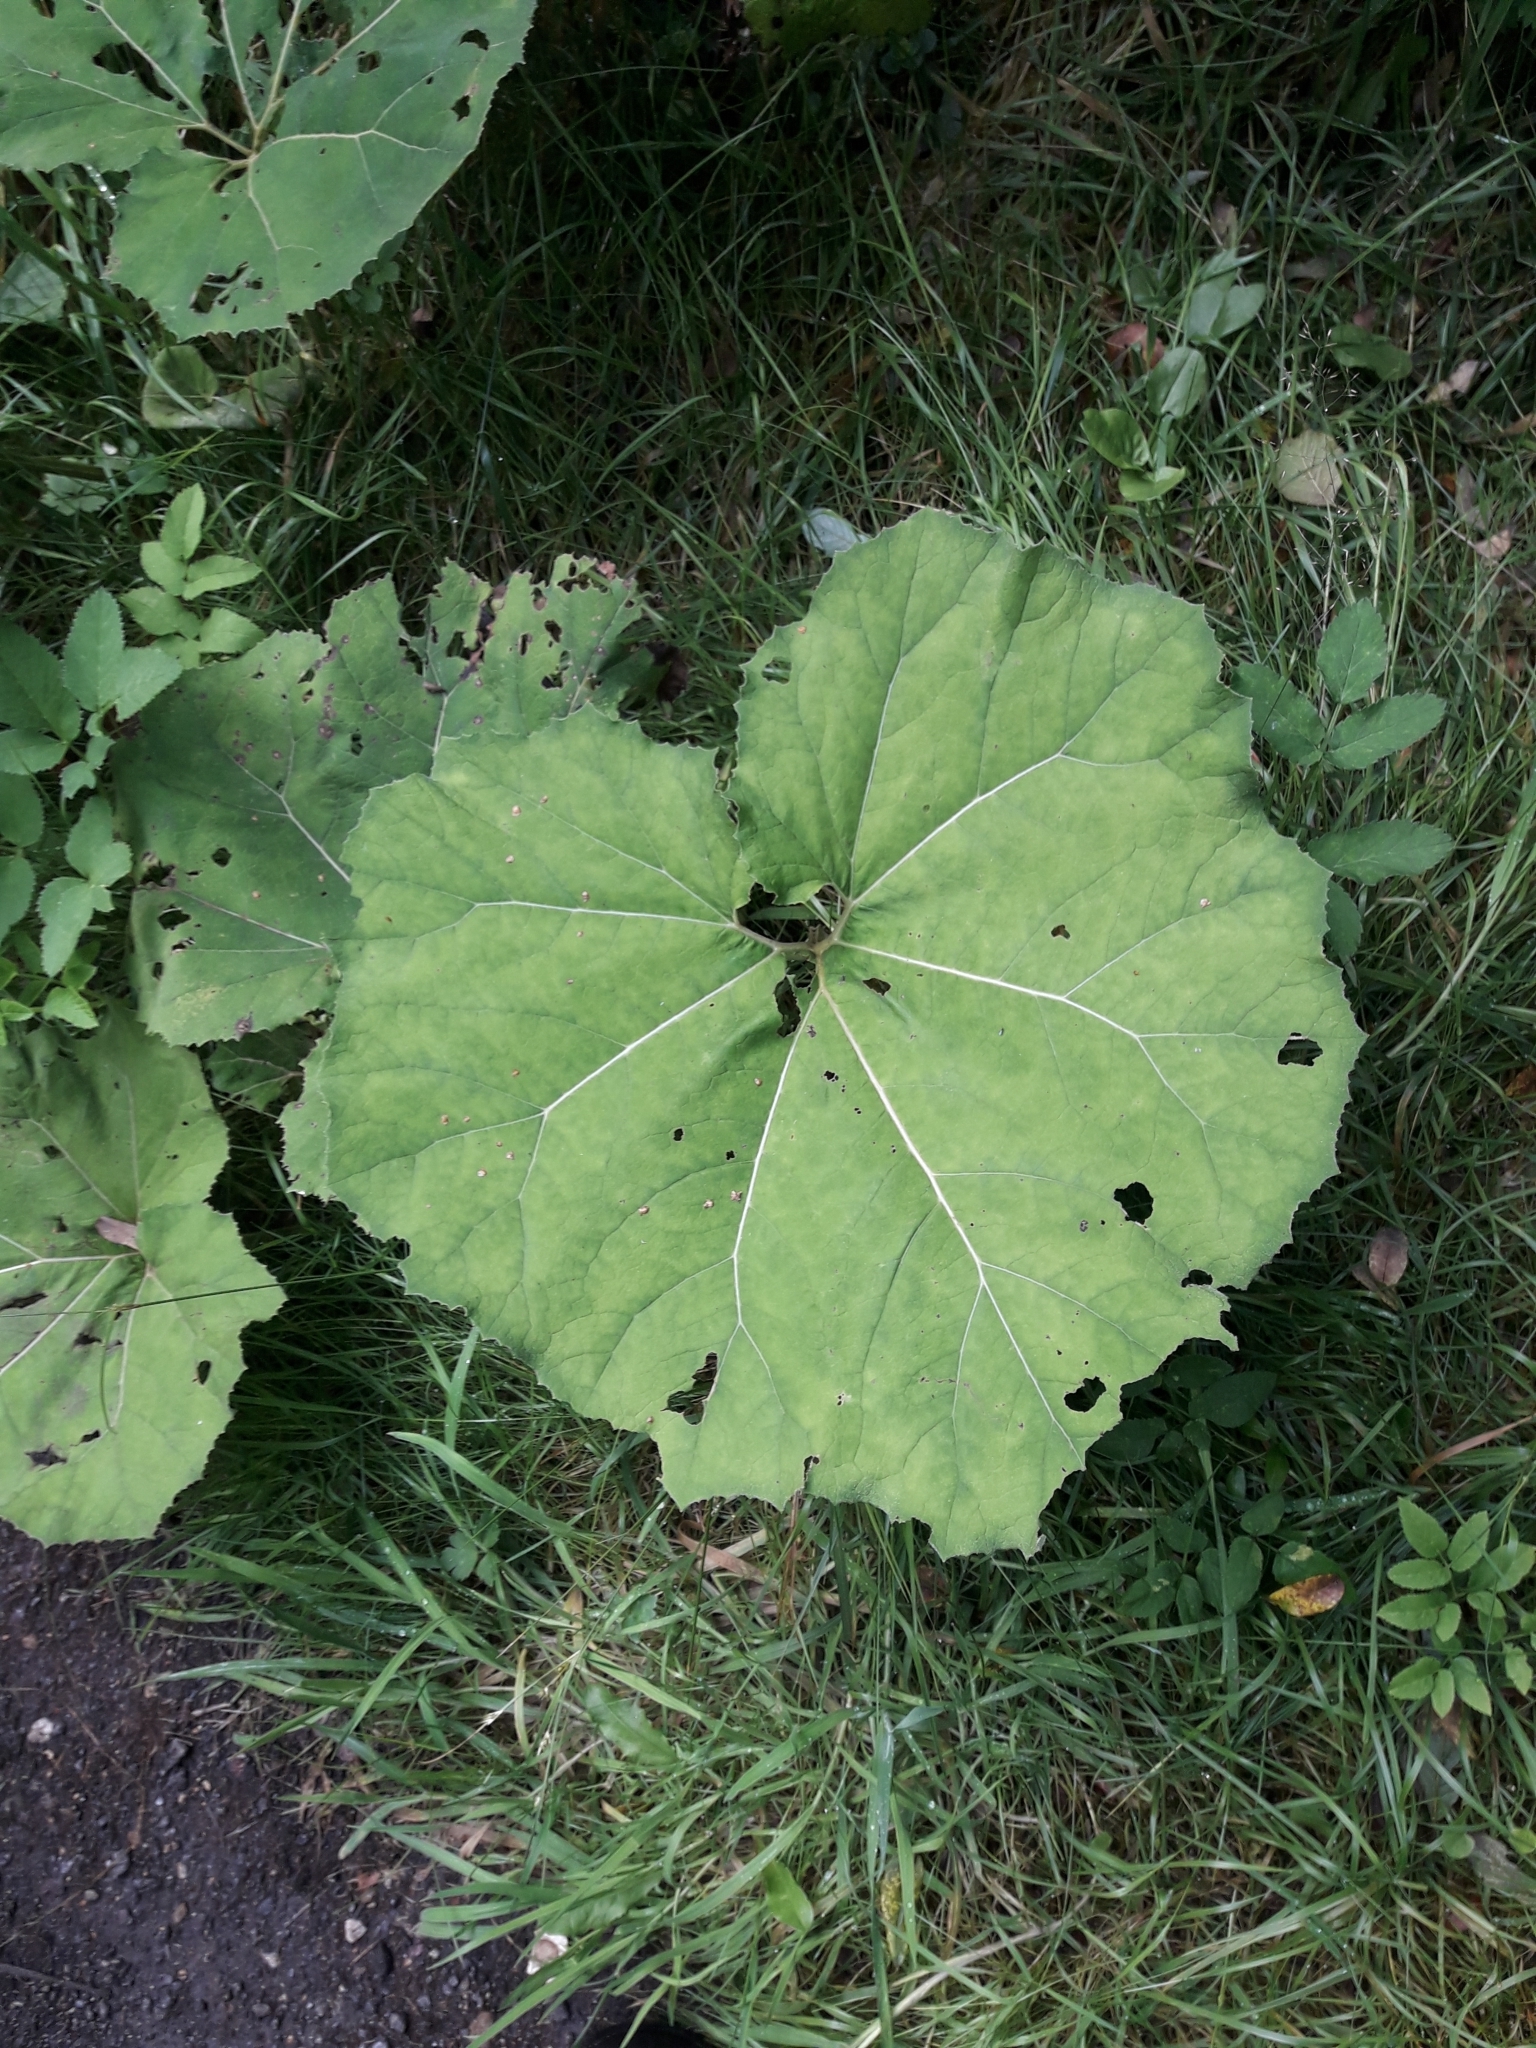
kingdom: Plantae
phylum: Tracheophyta
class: Magnoliopsida
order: Asterales
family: Asteraceae
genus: Petasites
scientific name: Petasites hybridus
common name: Butterbur
